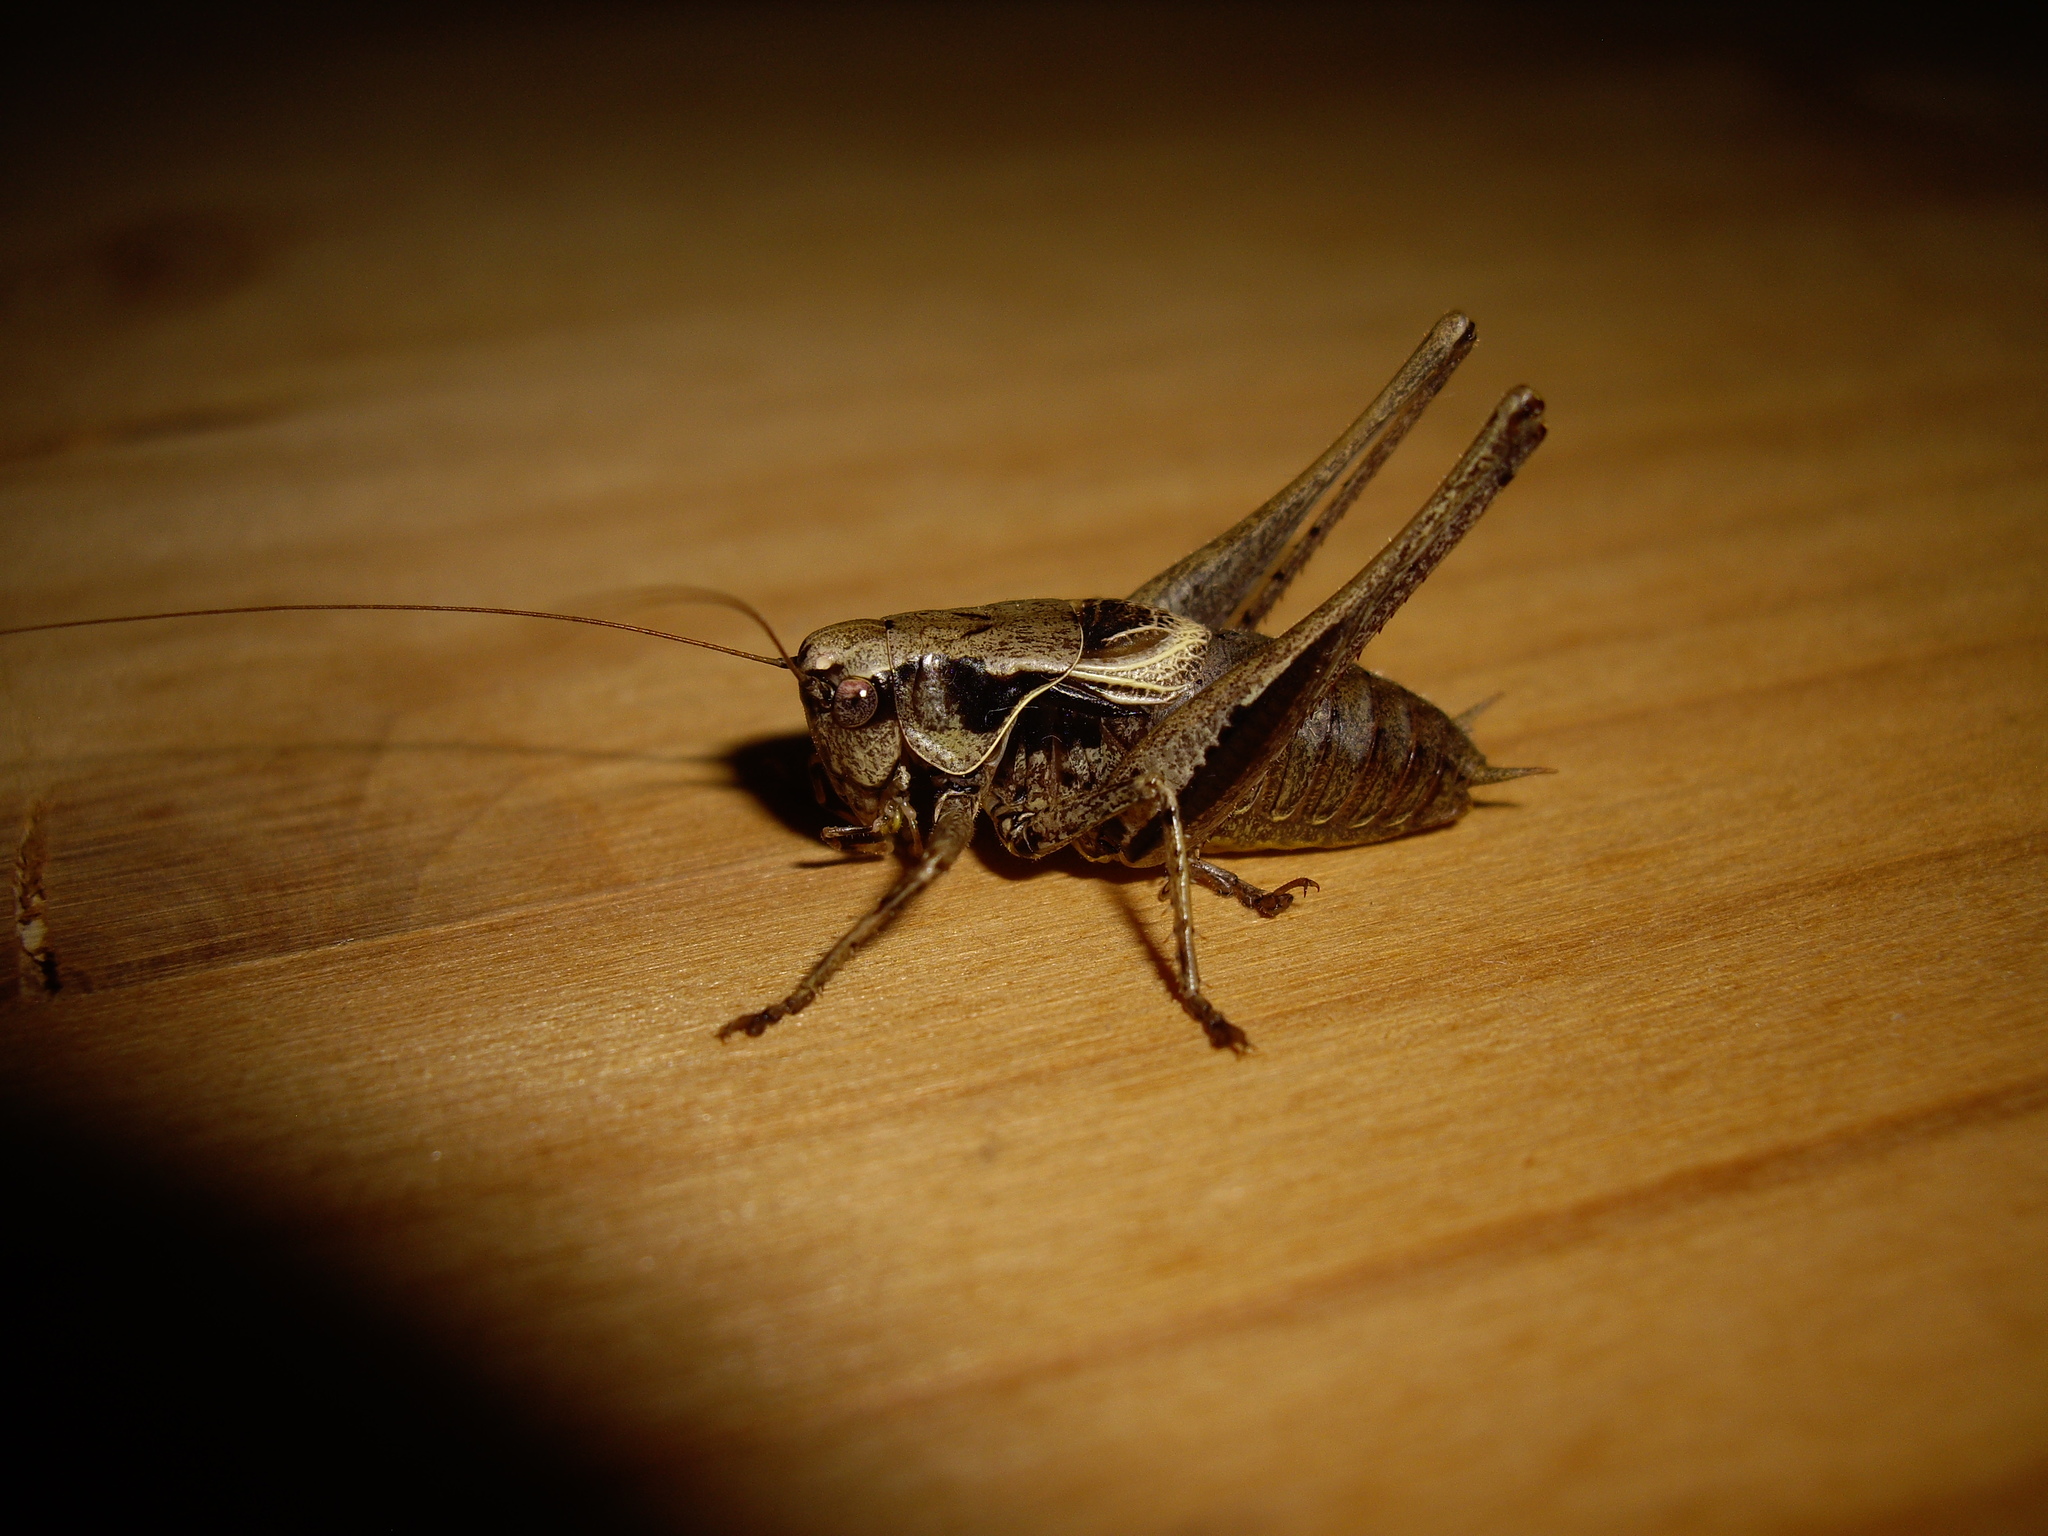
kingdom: Animalia
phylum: Arthropoda
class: Insecta
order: Orthoptera
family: Tettigoniidae
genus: Pholidoptera
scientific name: Pholidoptera griseoaptera
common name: Dark bush-cricket
